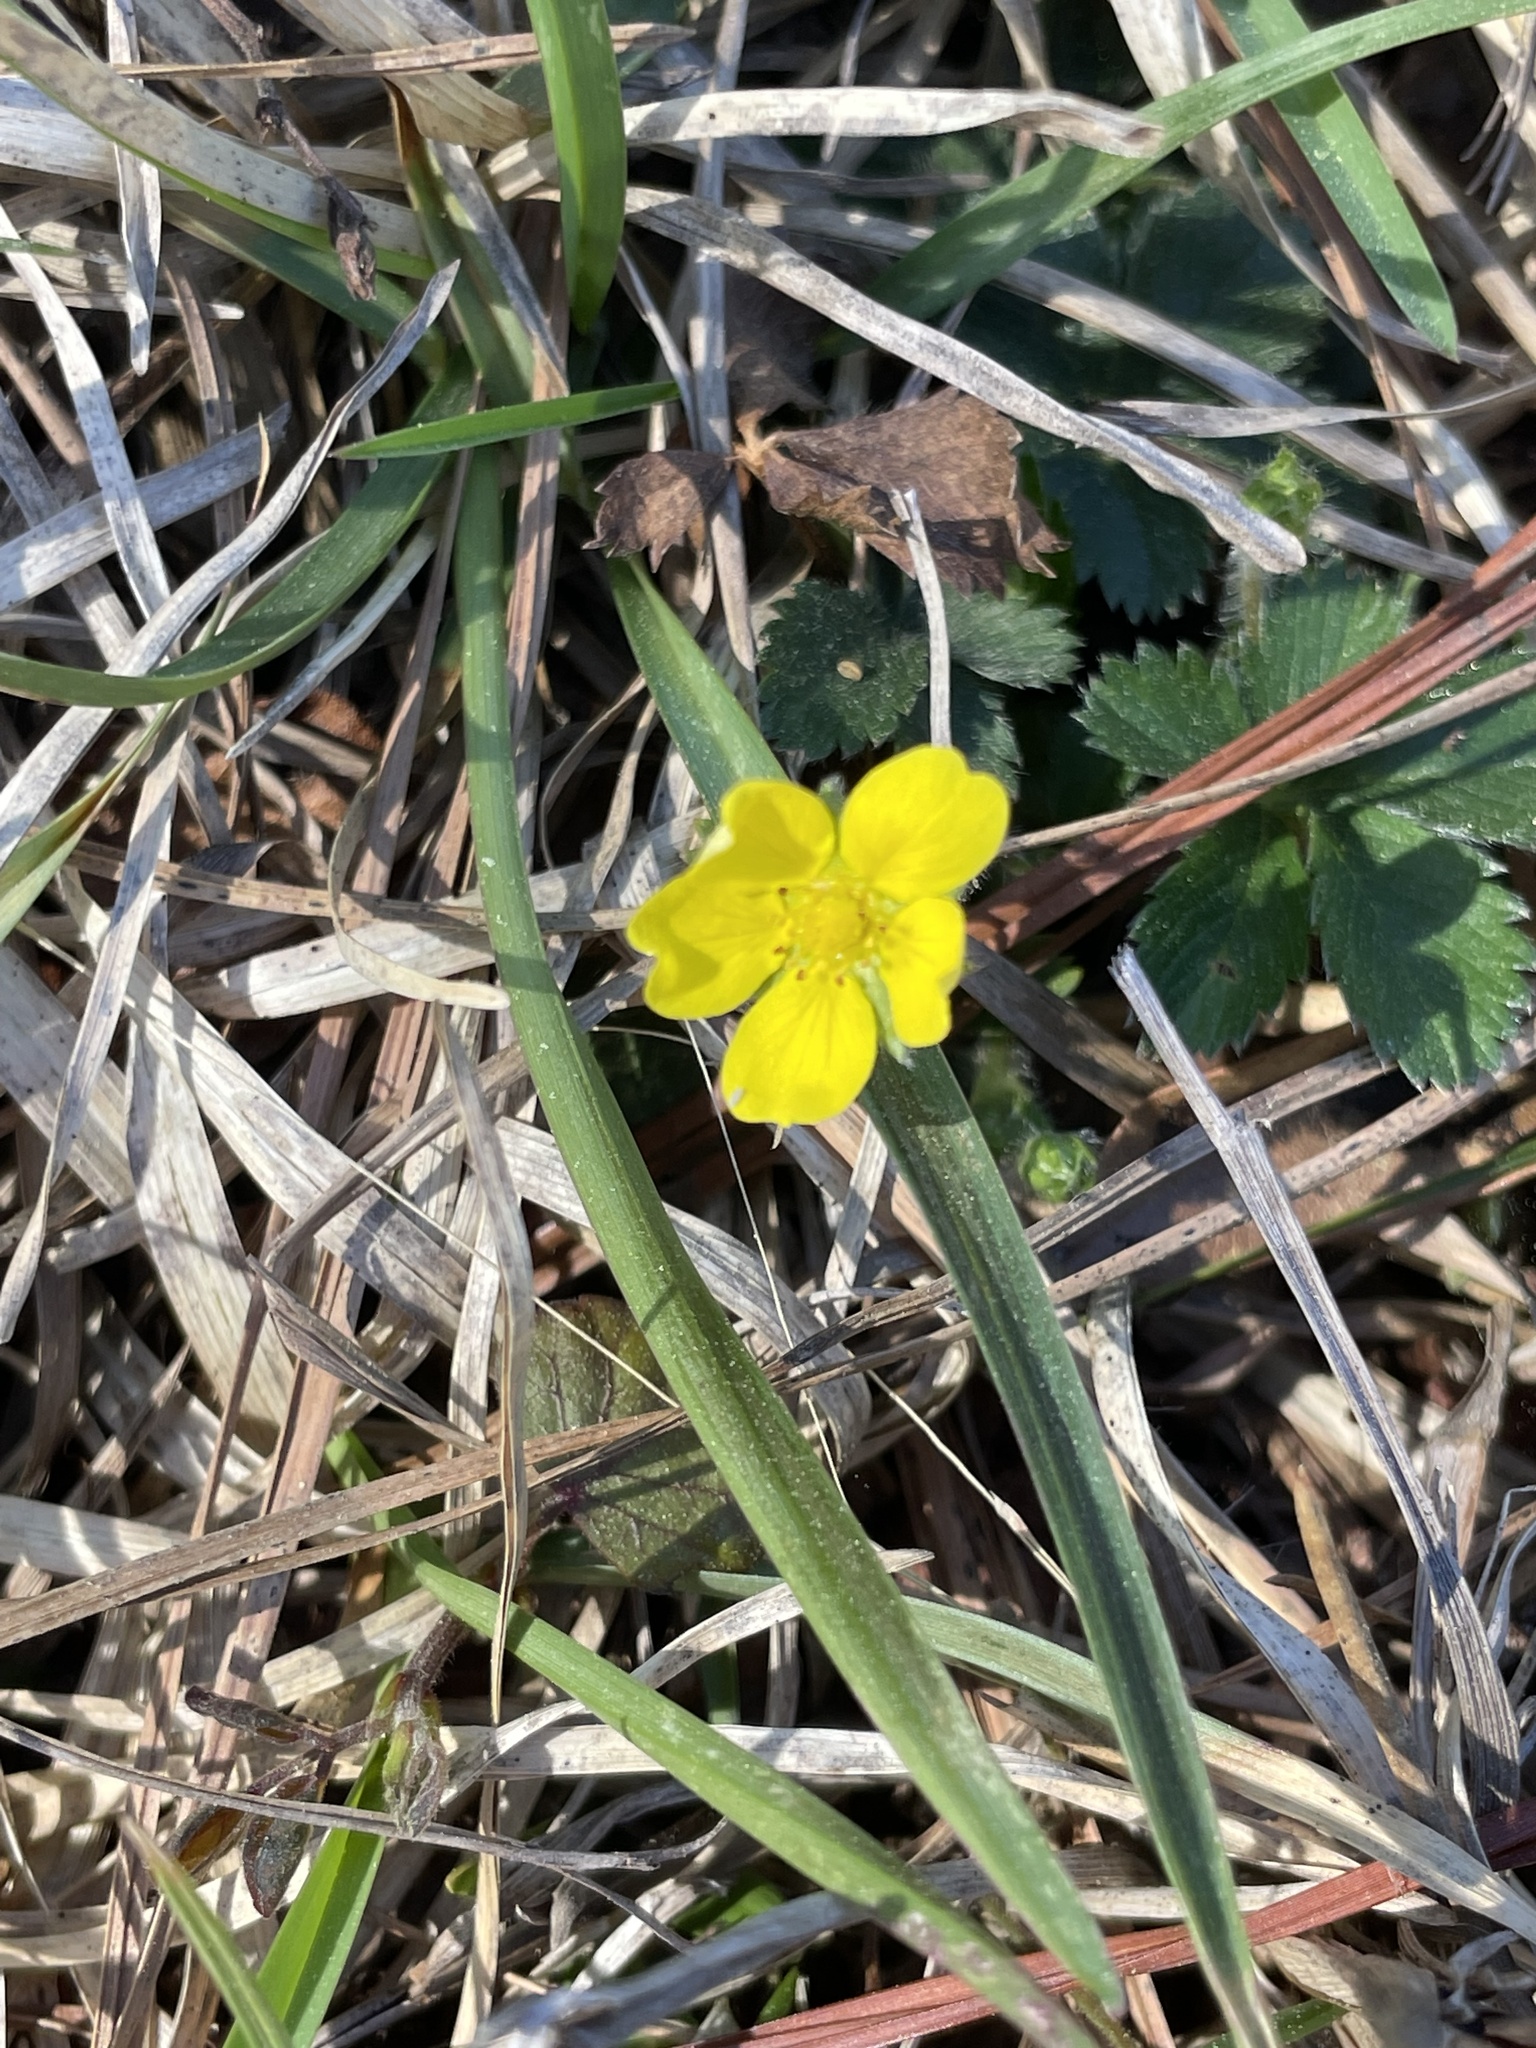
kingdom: Plantae
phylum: Tracheophyta
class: Magnoliopsida
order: Rosales
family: Rosaceae
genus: Potentilla
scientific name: Potentilla canadensis
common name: Canada cinquefoil
